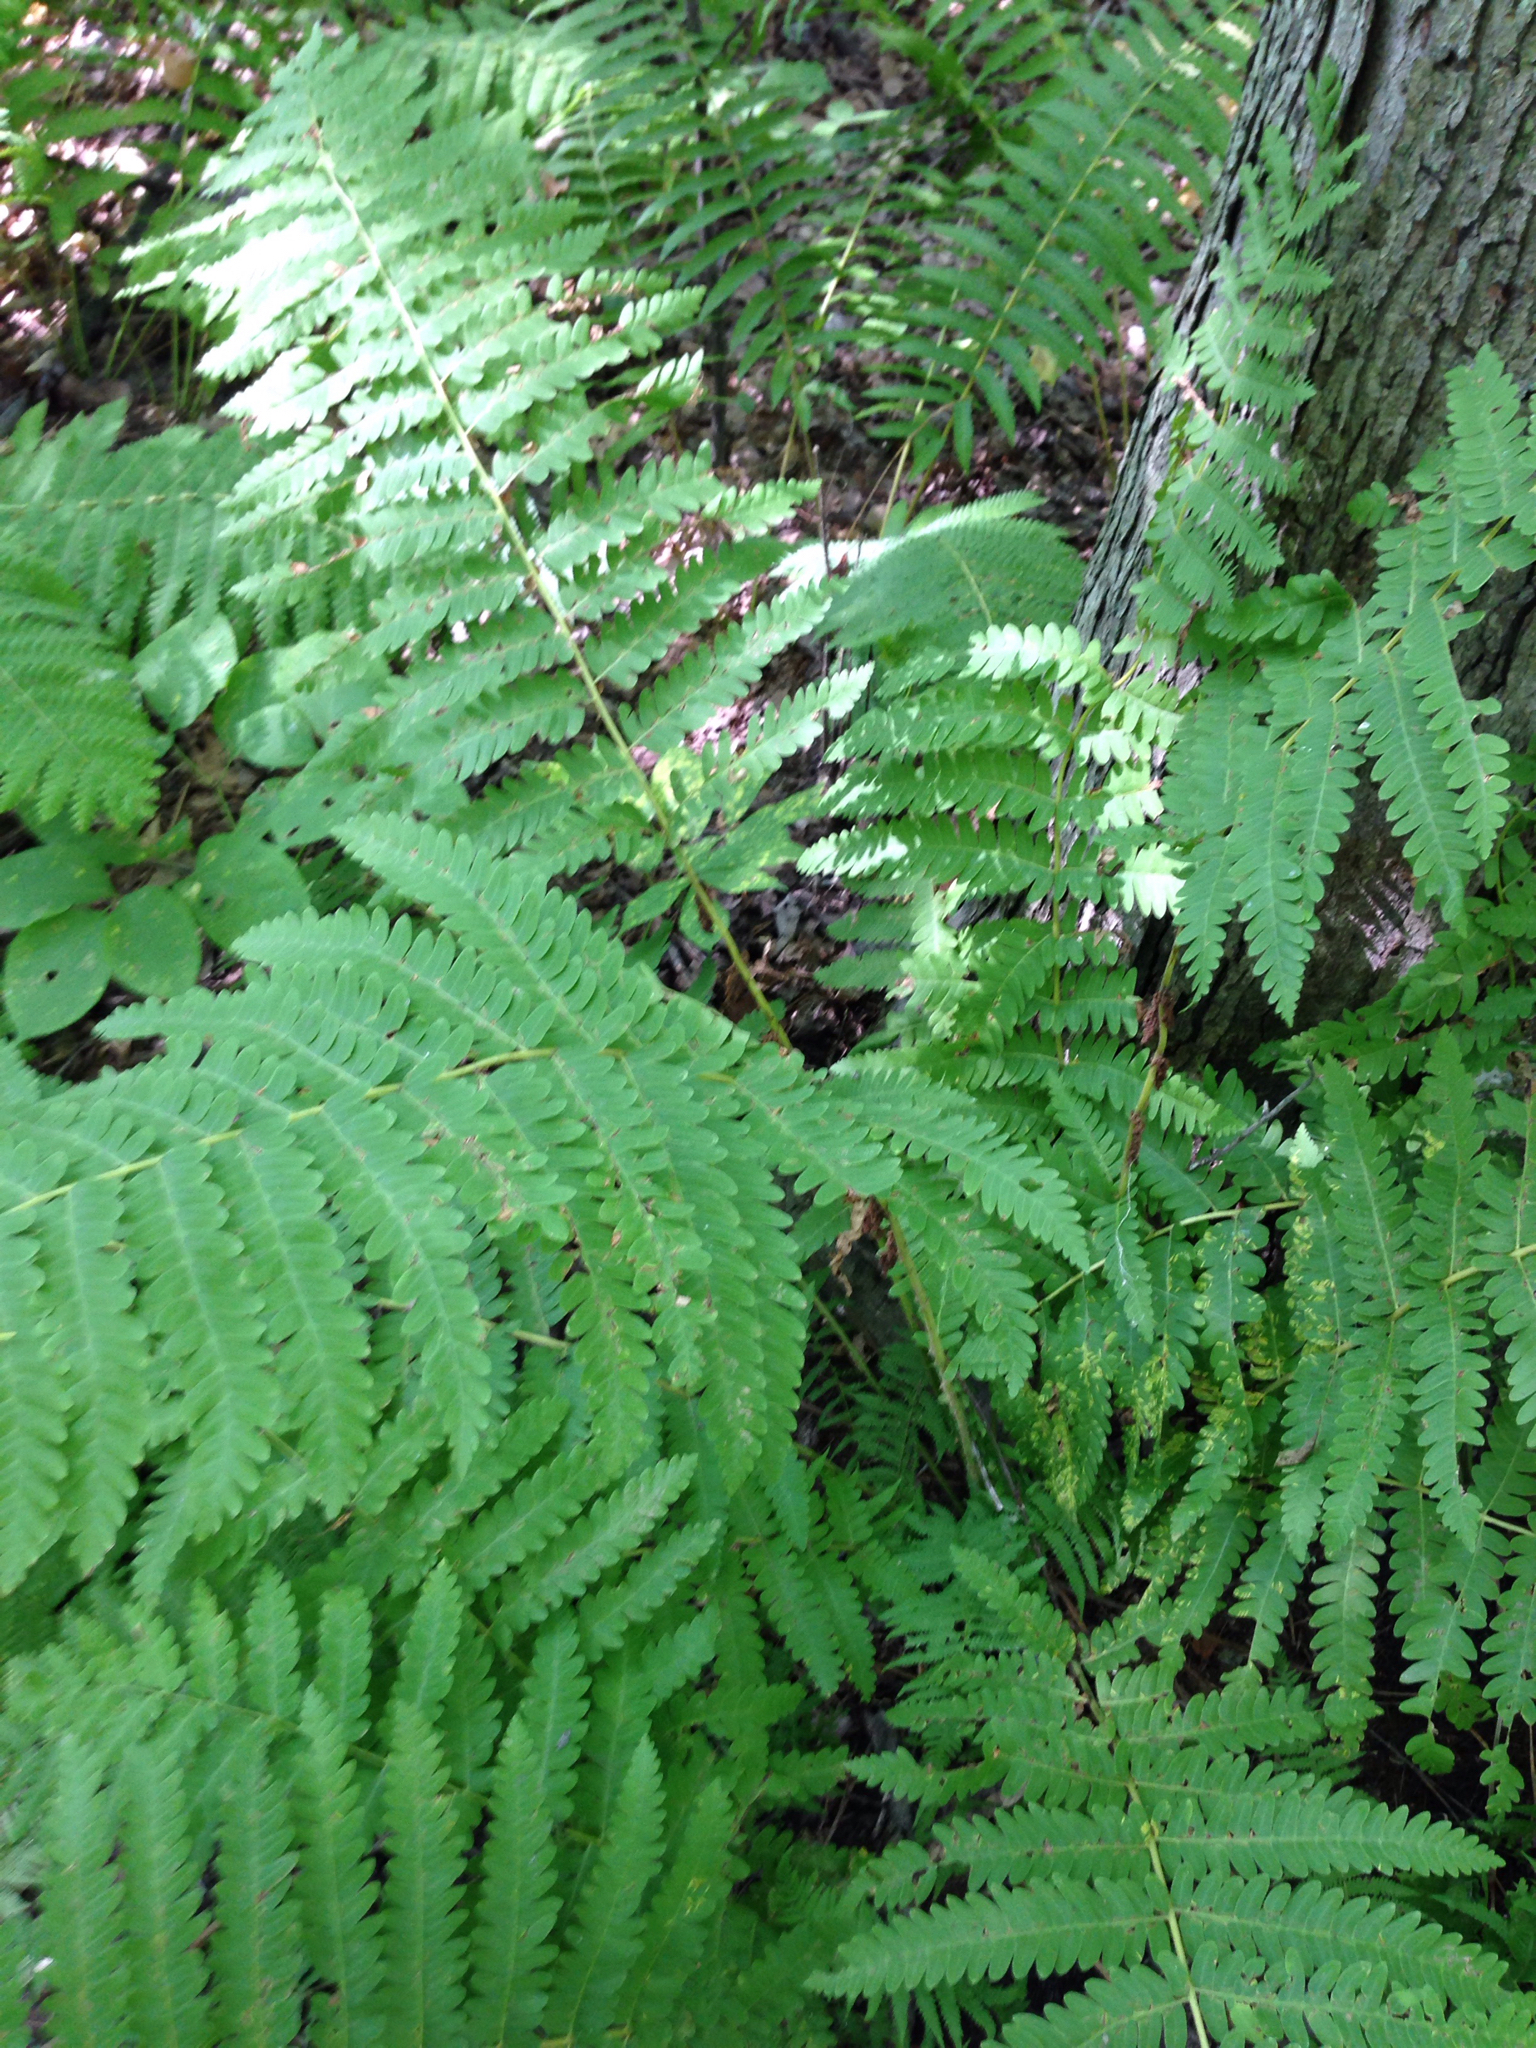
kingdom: Plantae
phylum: Tracheophyta
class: Polypodiopsida
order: Osmundales
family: Osmundaceae
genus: Claytosmunda
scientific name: Claytosmunda claytoniana
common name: Clayton's fern
